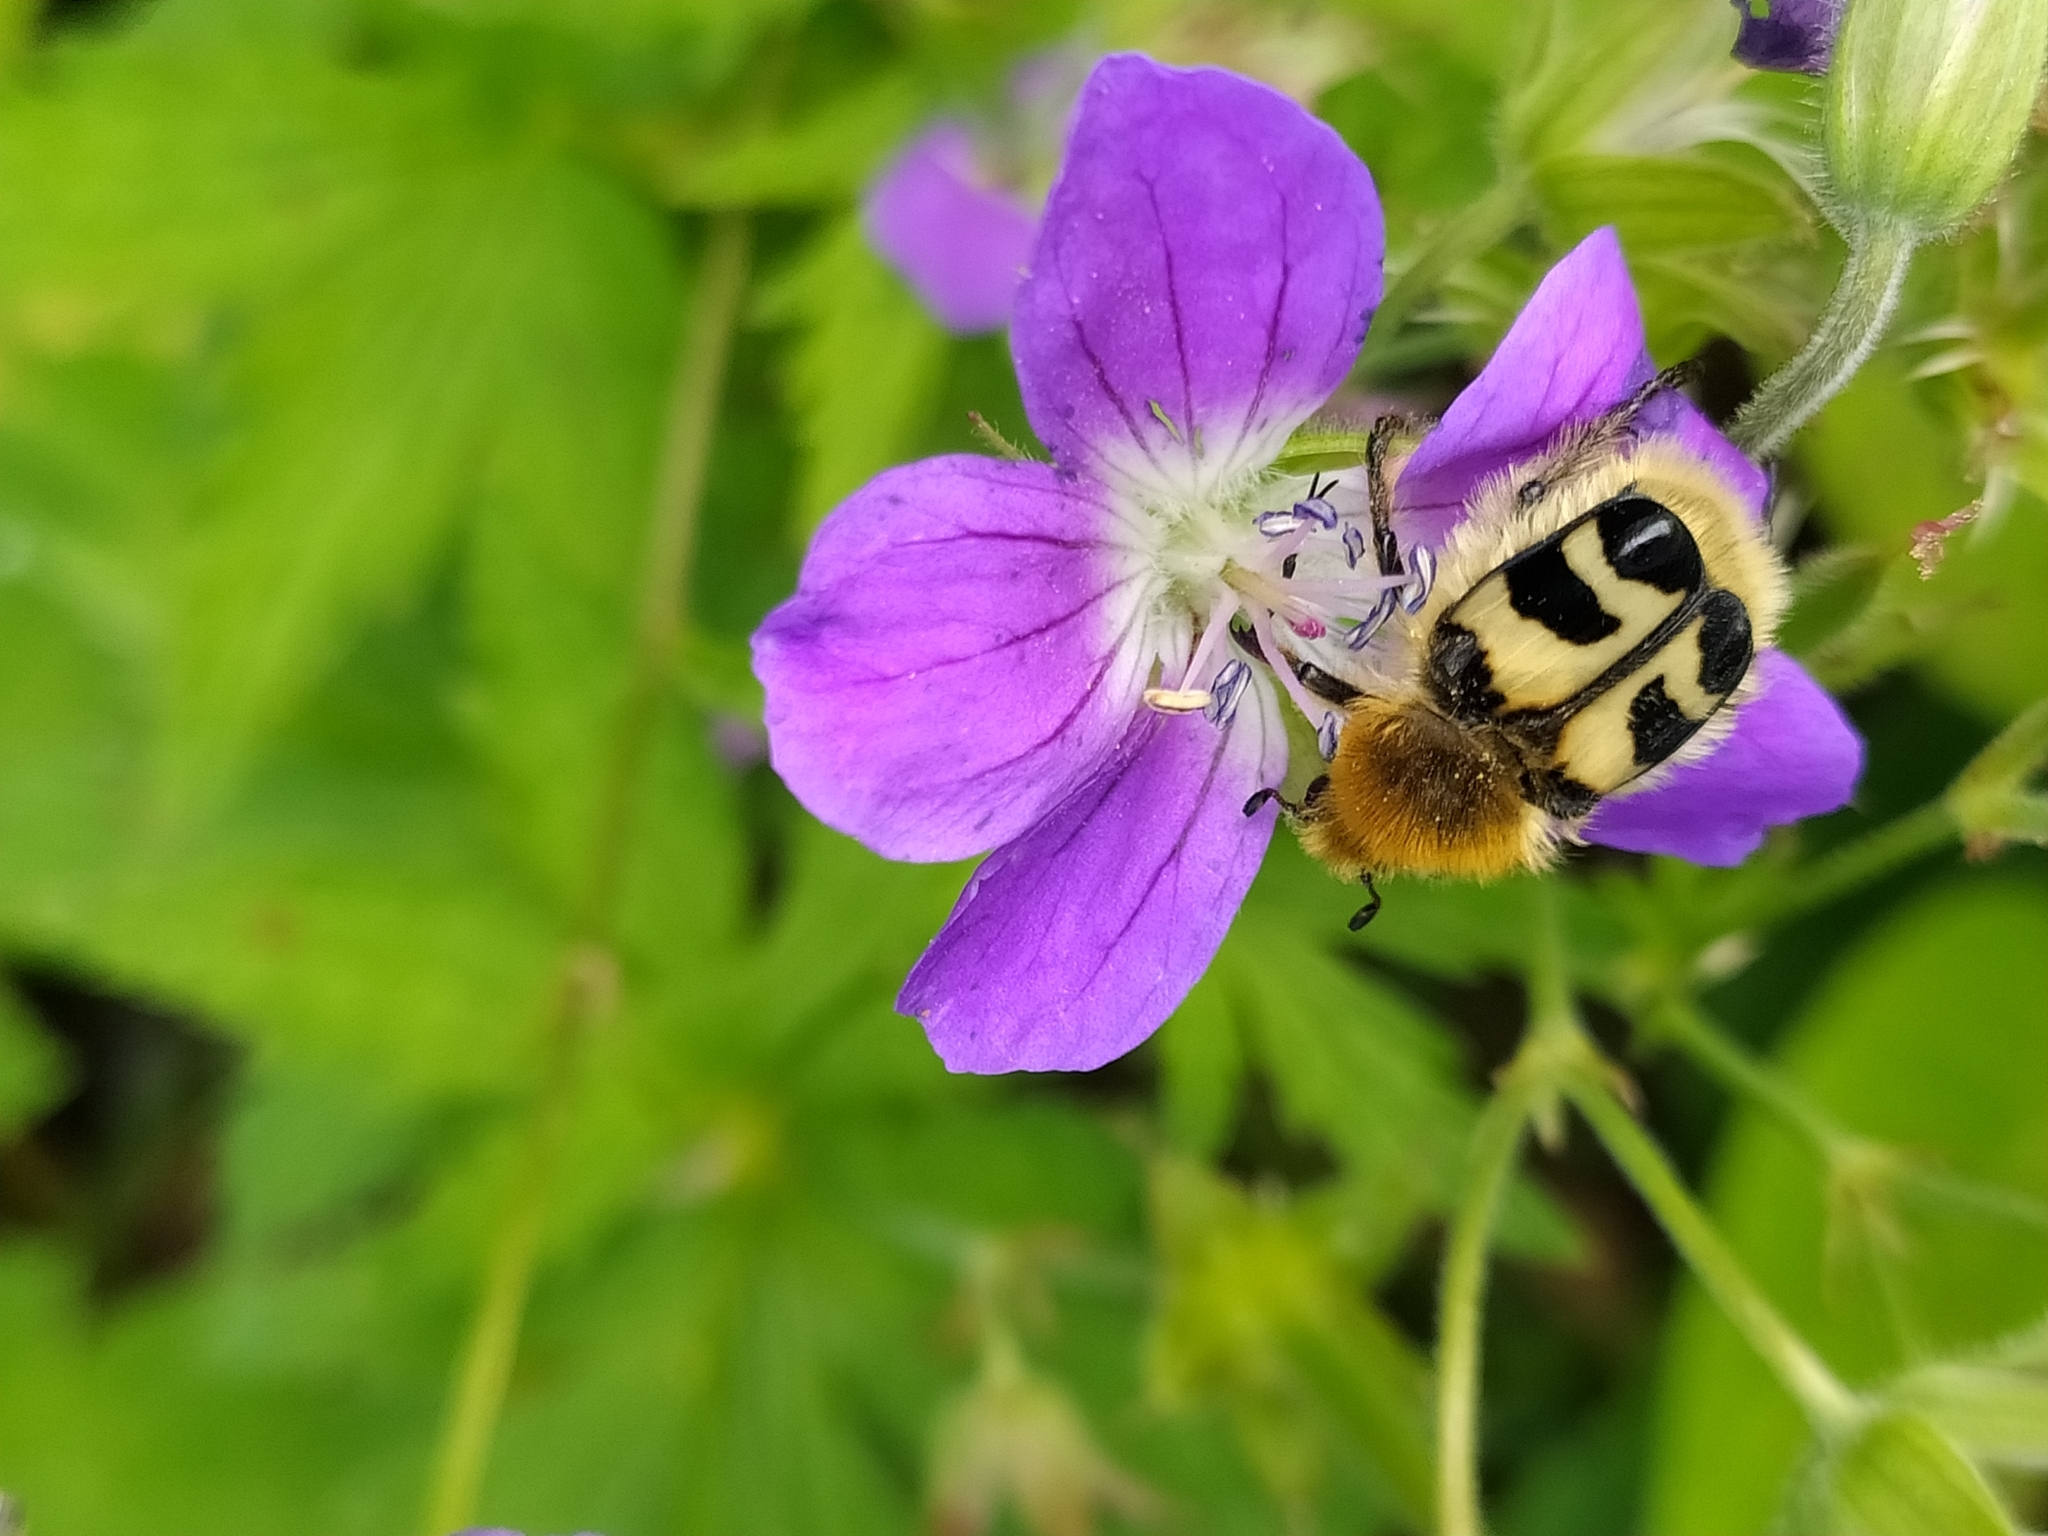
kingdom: Animalia
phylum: Arthropoda
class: Insecta
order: Coleoptera
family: Scarabaeidae
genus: Trichius
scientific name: Trichius fasciatus
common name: Bee beetle
